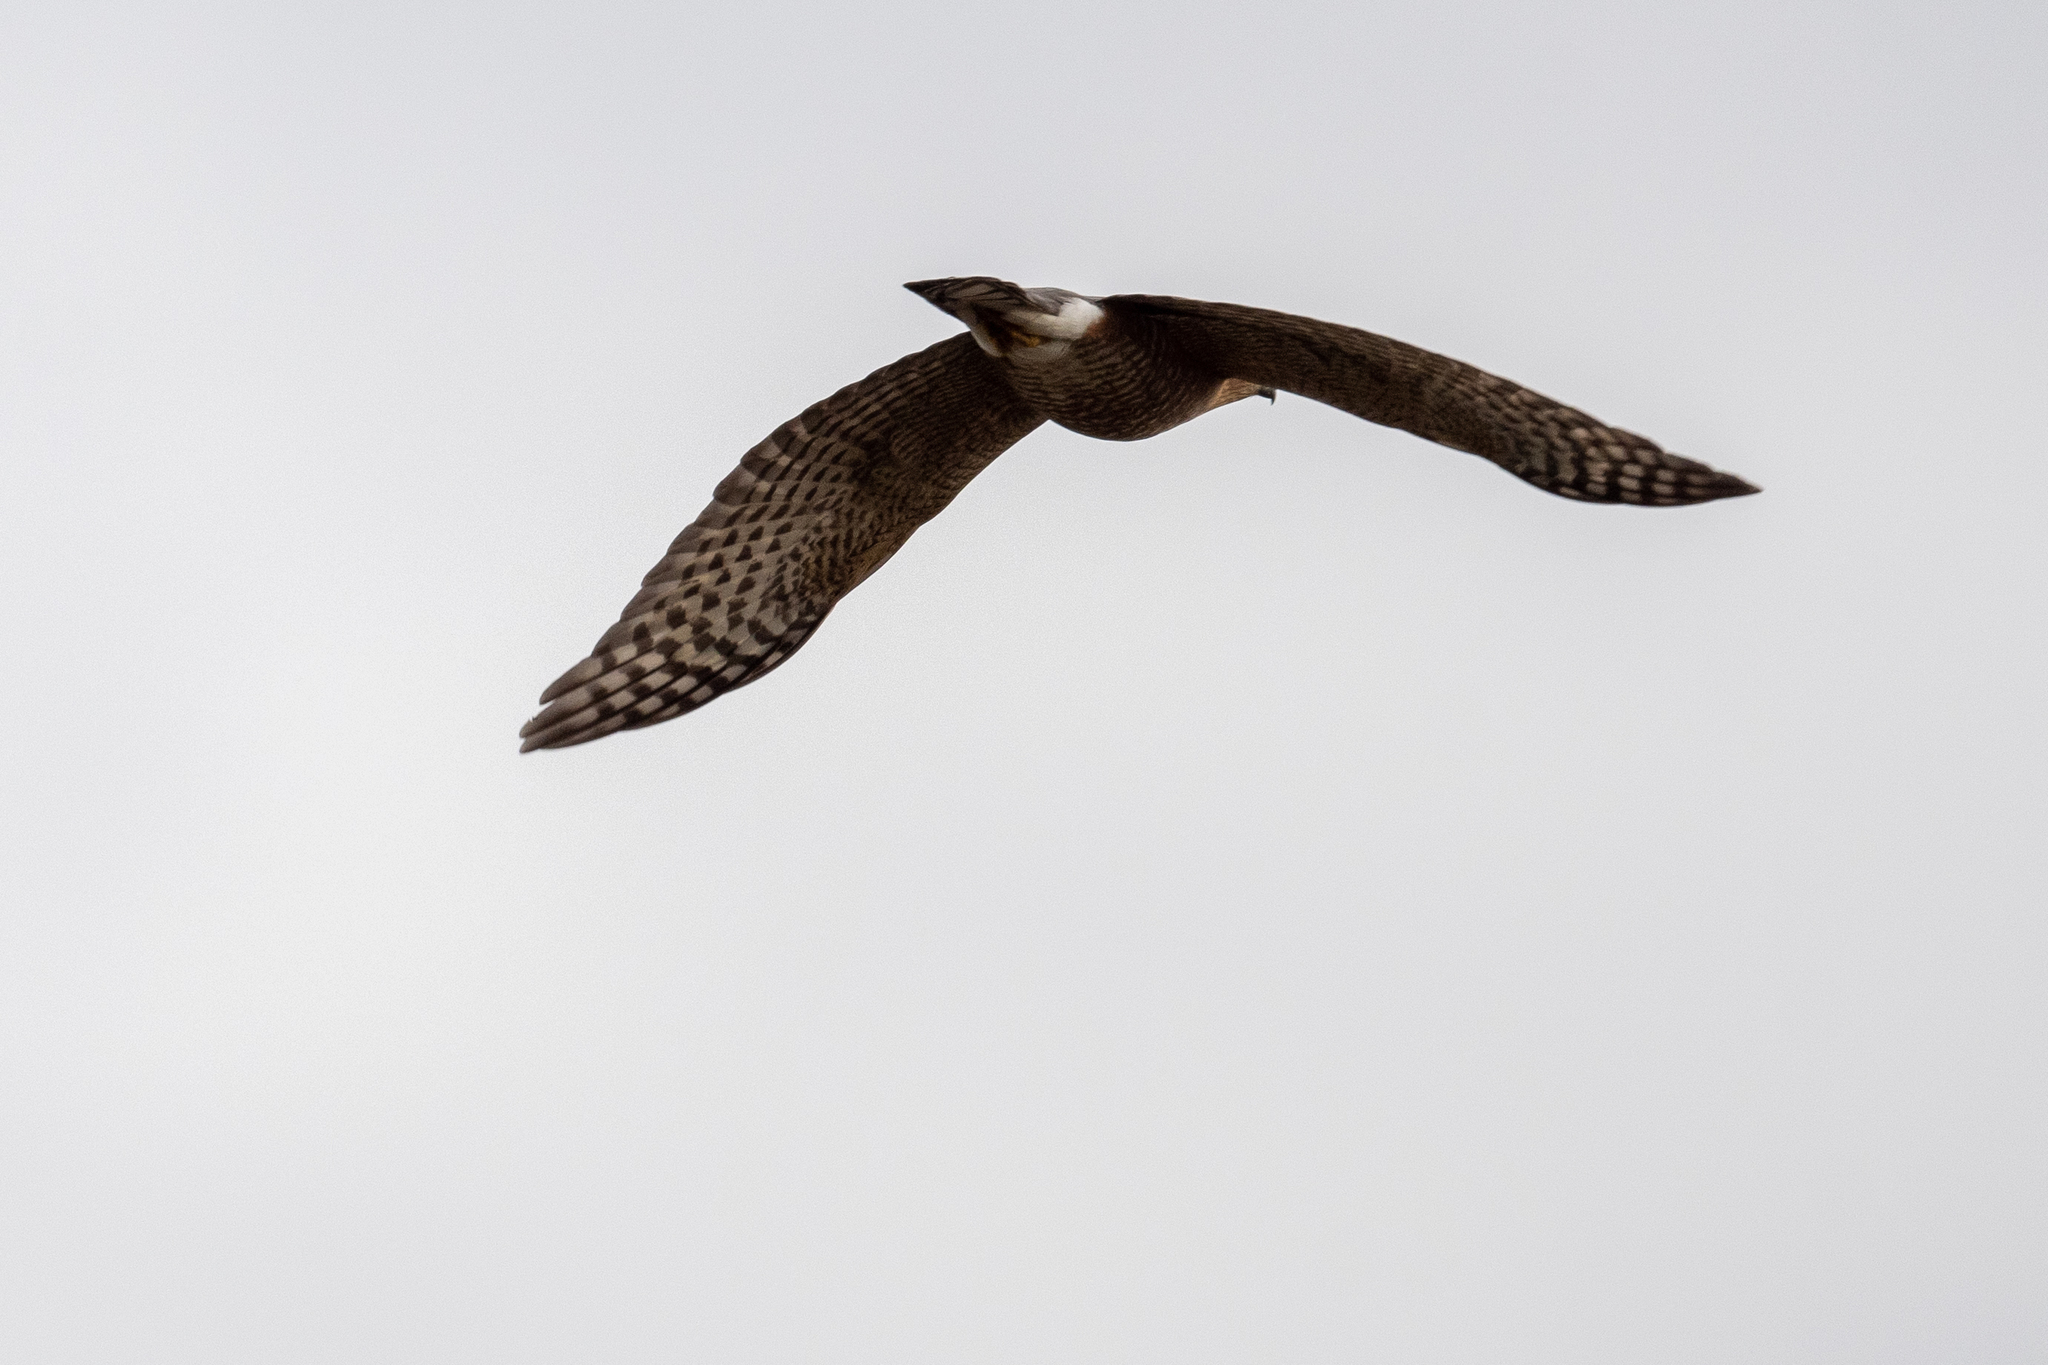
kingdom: Animalia
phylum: Chordata
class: Aves
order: Accipitriformes
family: Accipitridae
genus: Accipiter
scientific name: Accipiter striatus
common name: Sharp-shinned hawk
